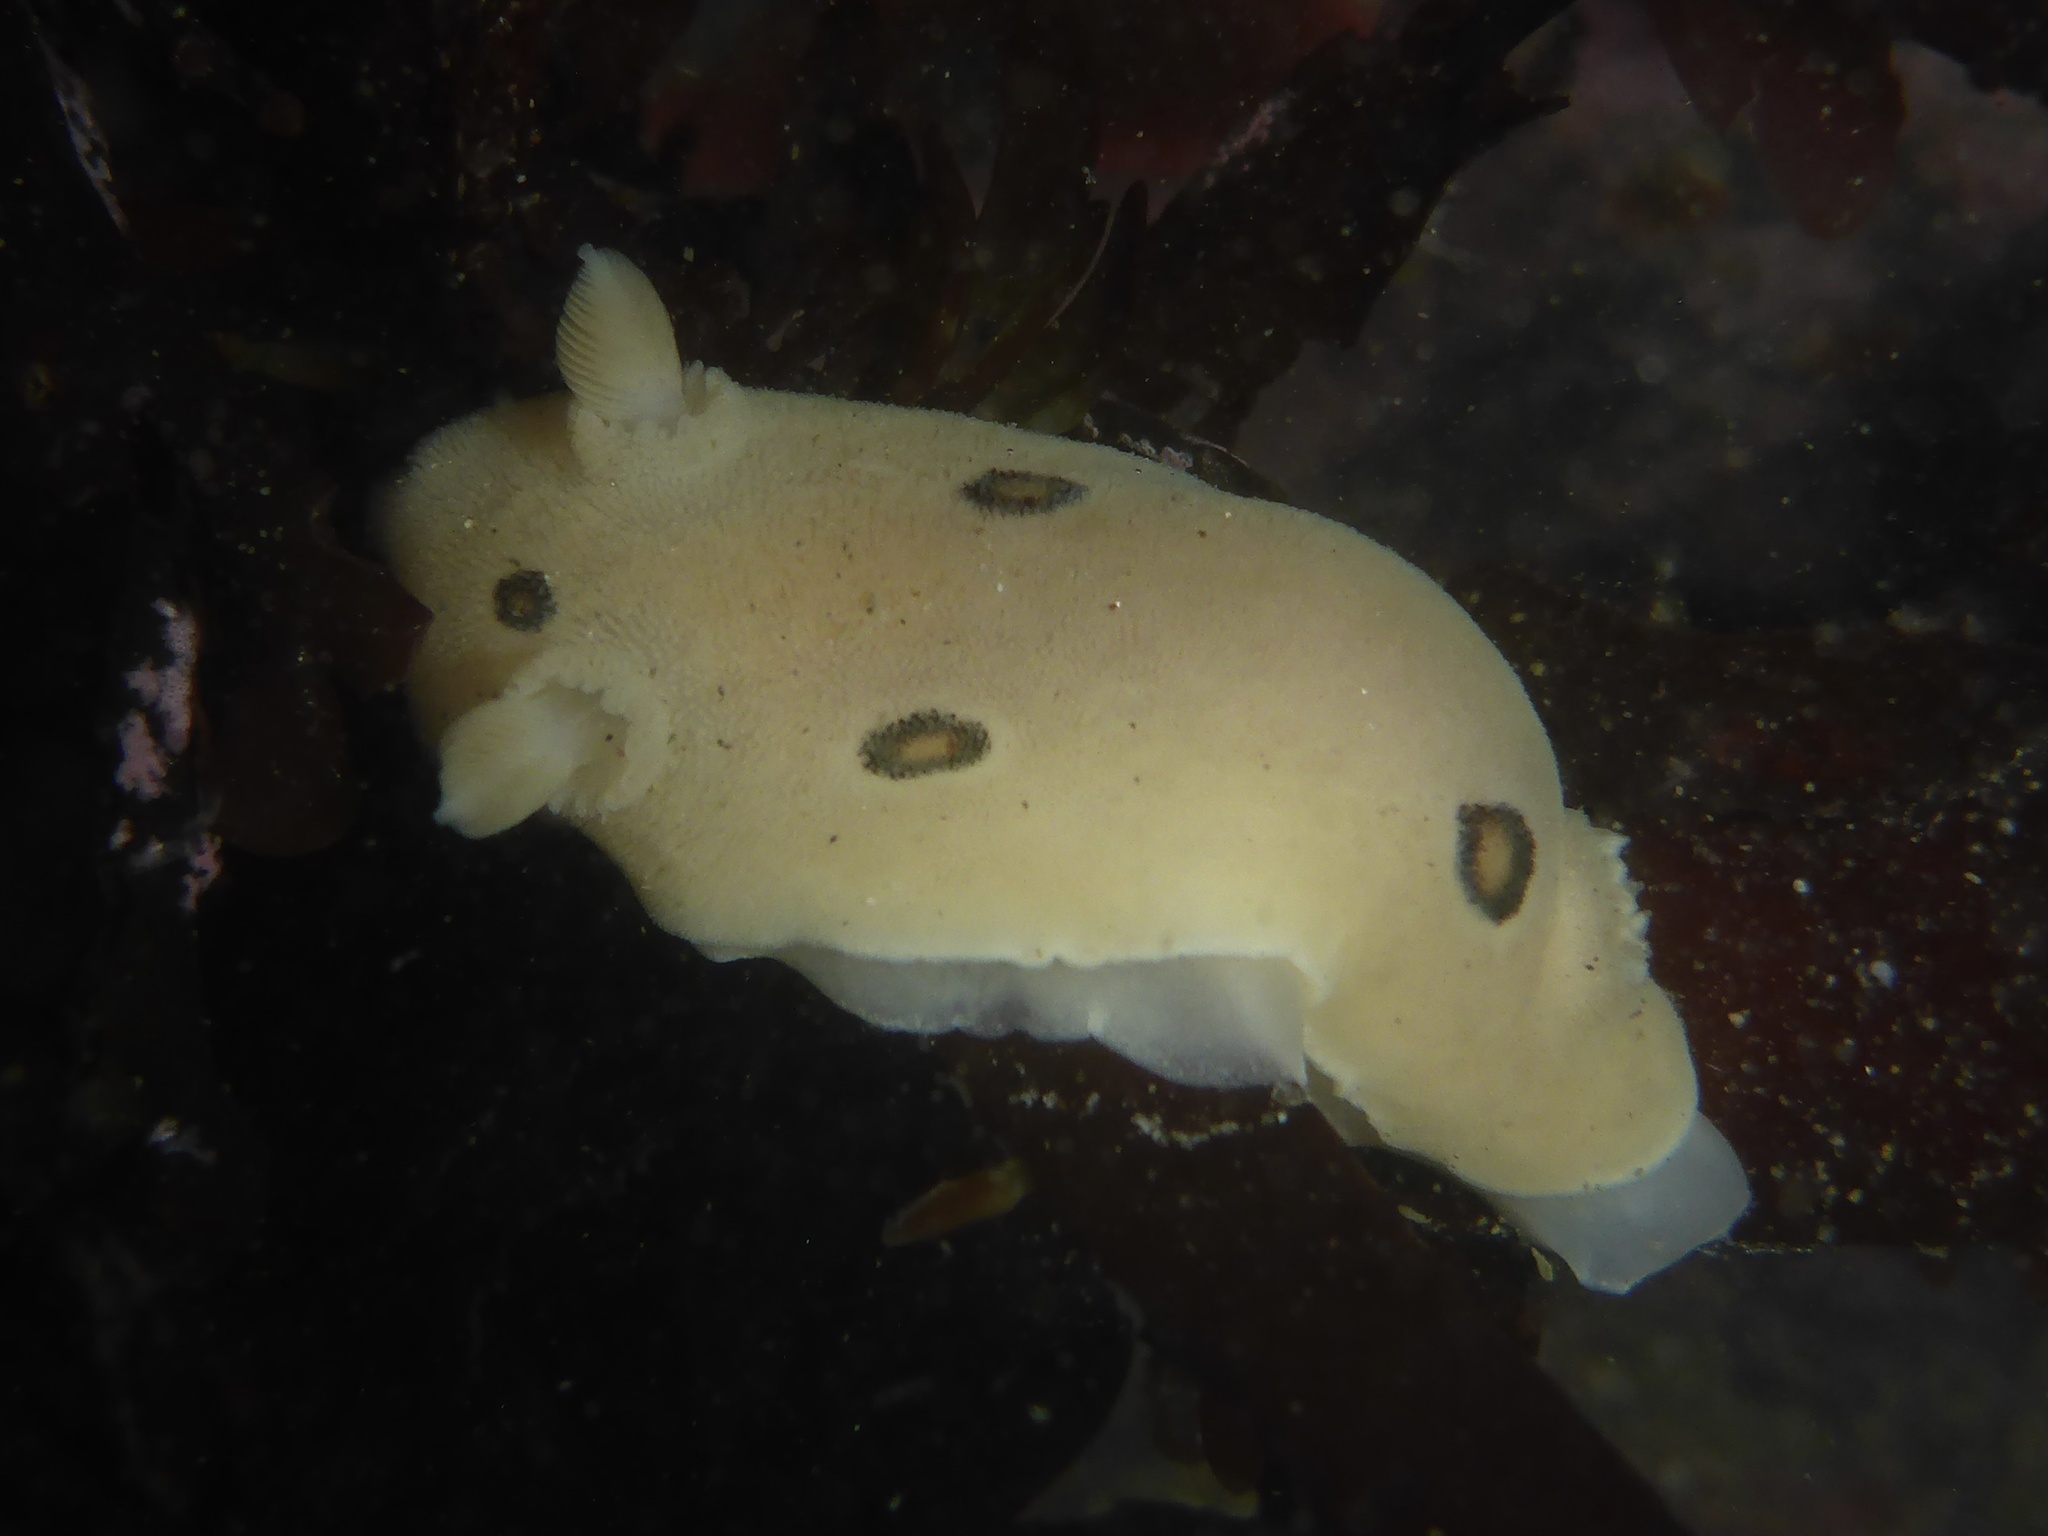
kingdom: Animalia
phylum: Mollusca
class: Gastropoda
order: Nudibranchia
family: Discodorididae
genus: Diaulula
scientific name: Diaulula sandiegensis
